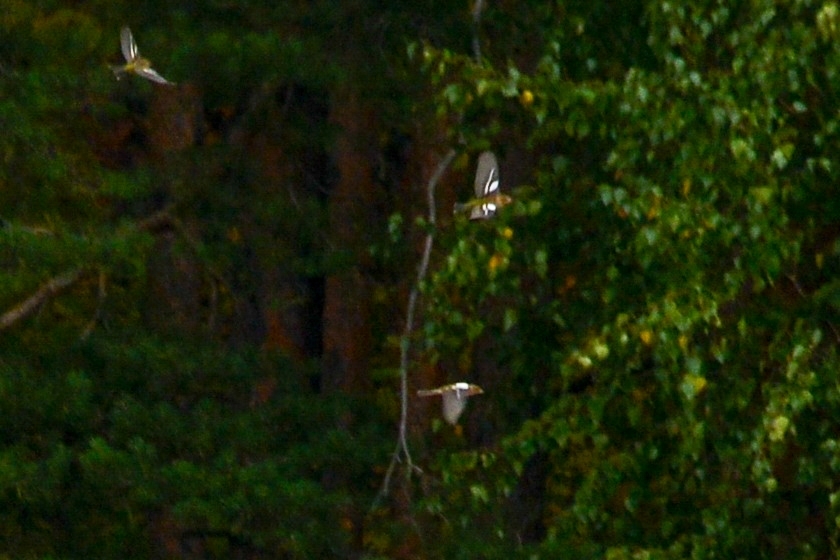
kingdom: Animalia
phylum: Chordata
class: Aves
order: Passeriformes
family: Fringillidae
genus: Fringilla
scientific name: Fringilla coelebs
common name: Common chaffinch
